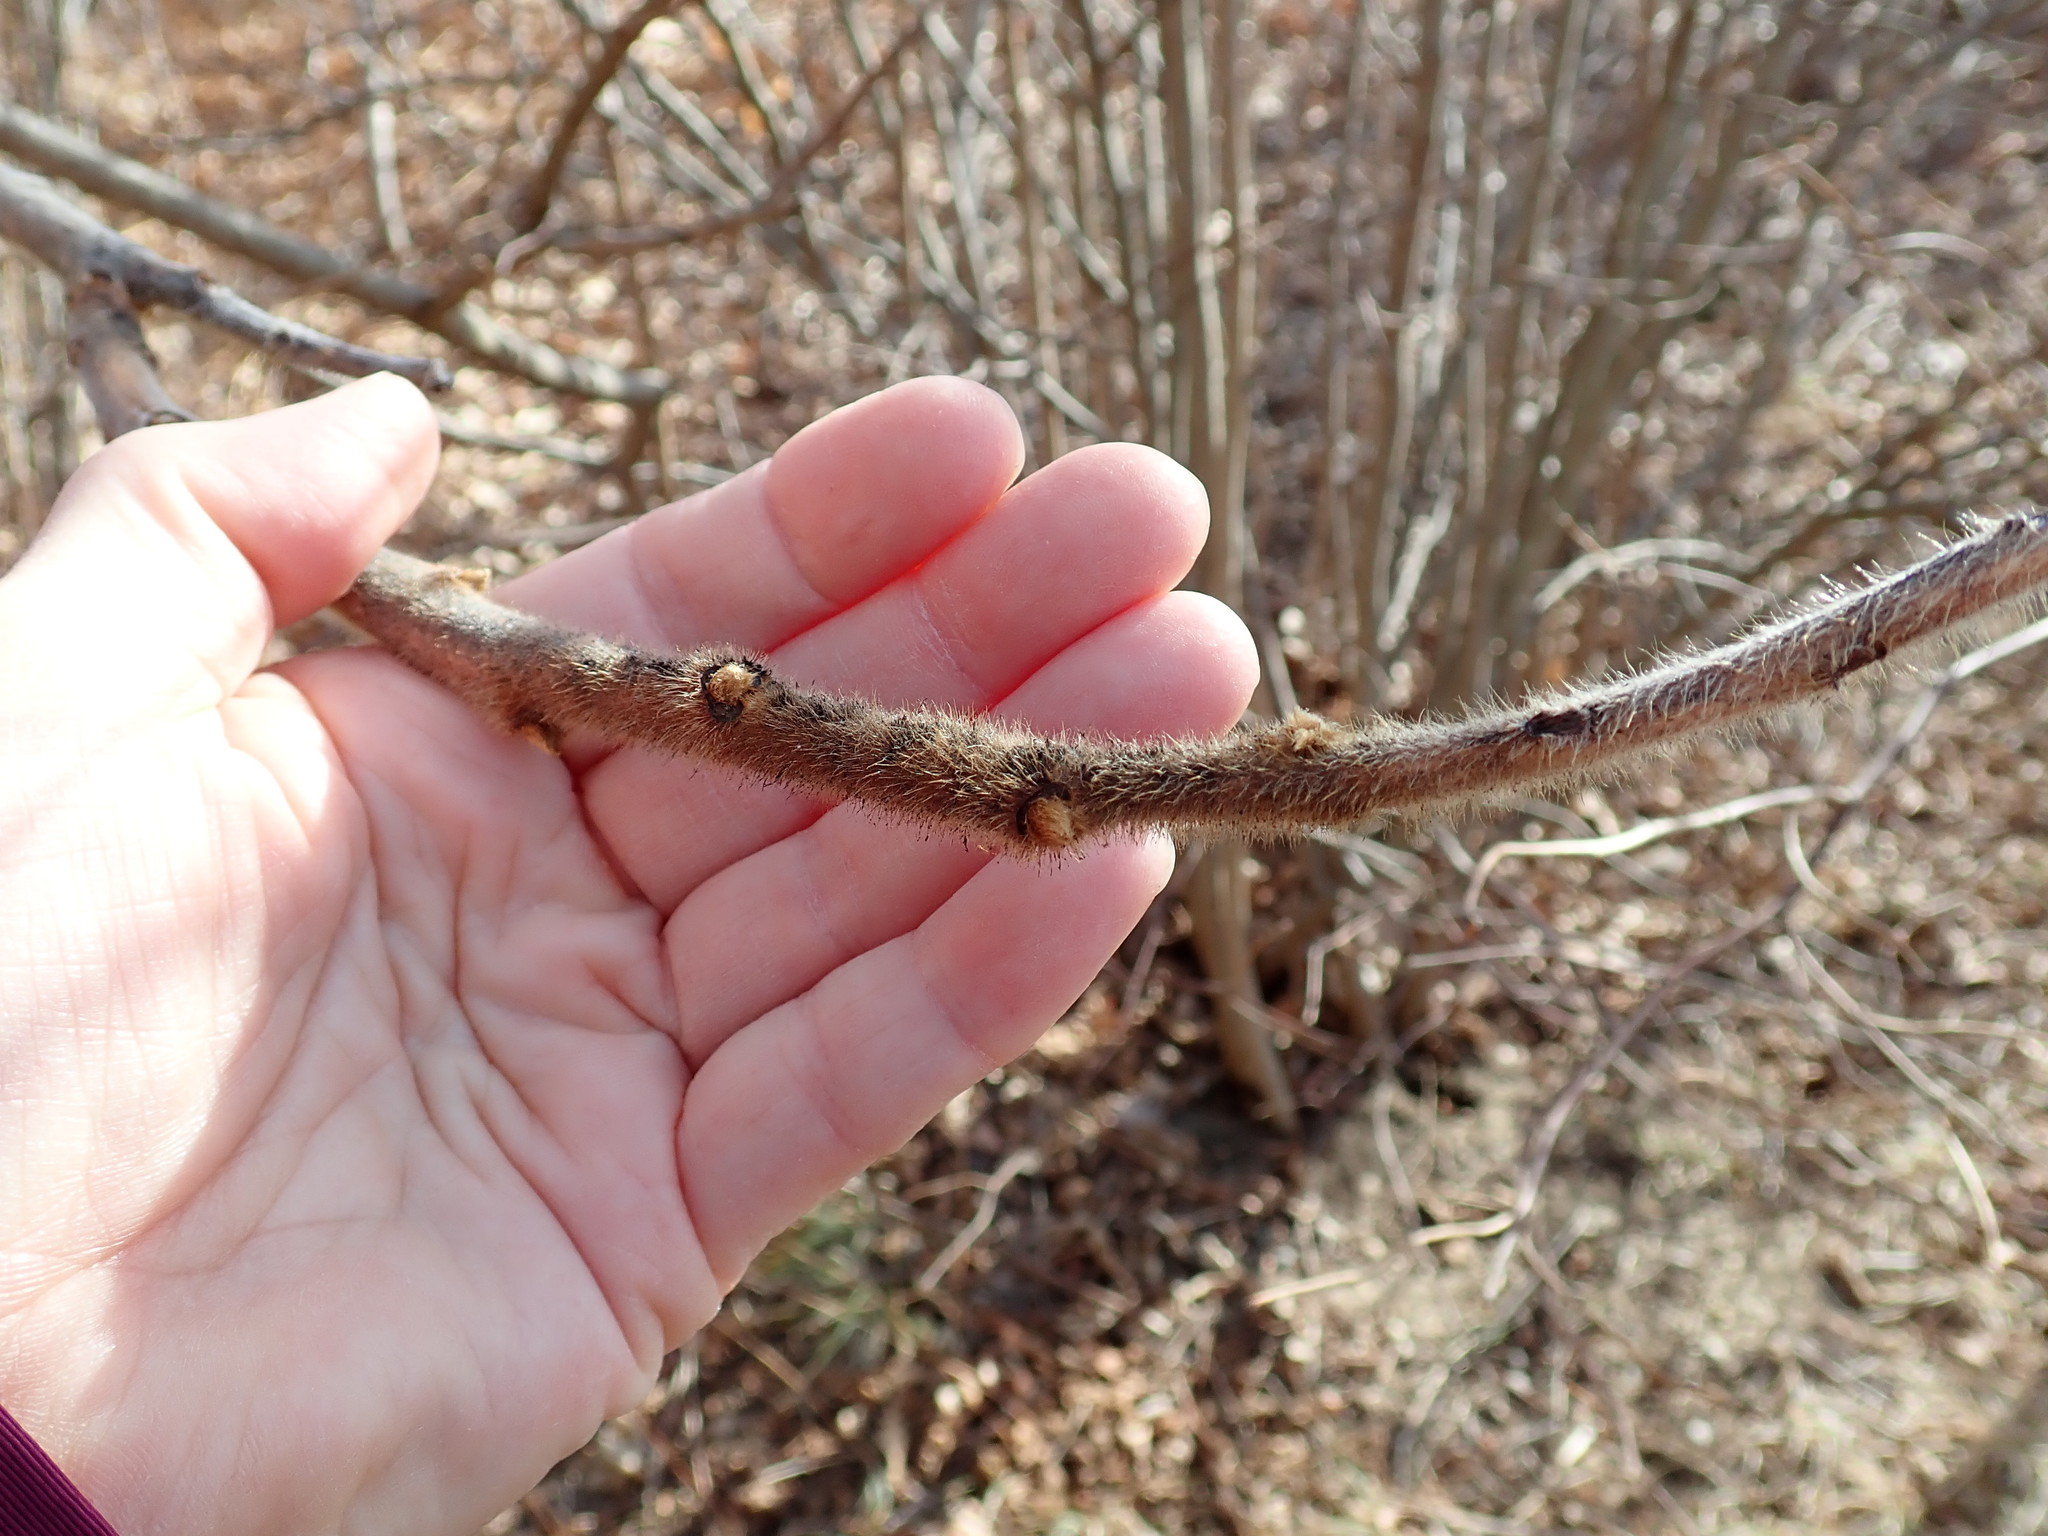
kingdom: Plantae
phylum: Tracheophyta
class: Magnoliopsida
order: Sapindales
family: Anacardiaceae
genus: Rhus
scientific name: Rhus typhina
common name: Staghorn sumac
